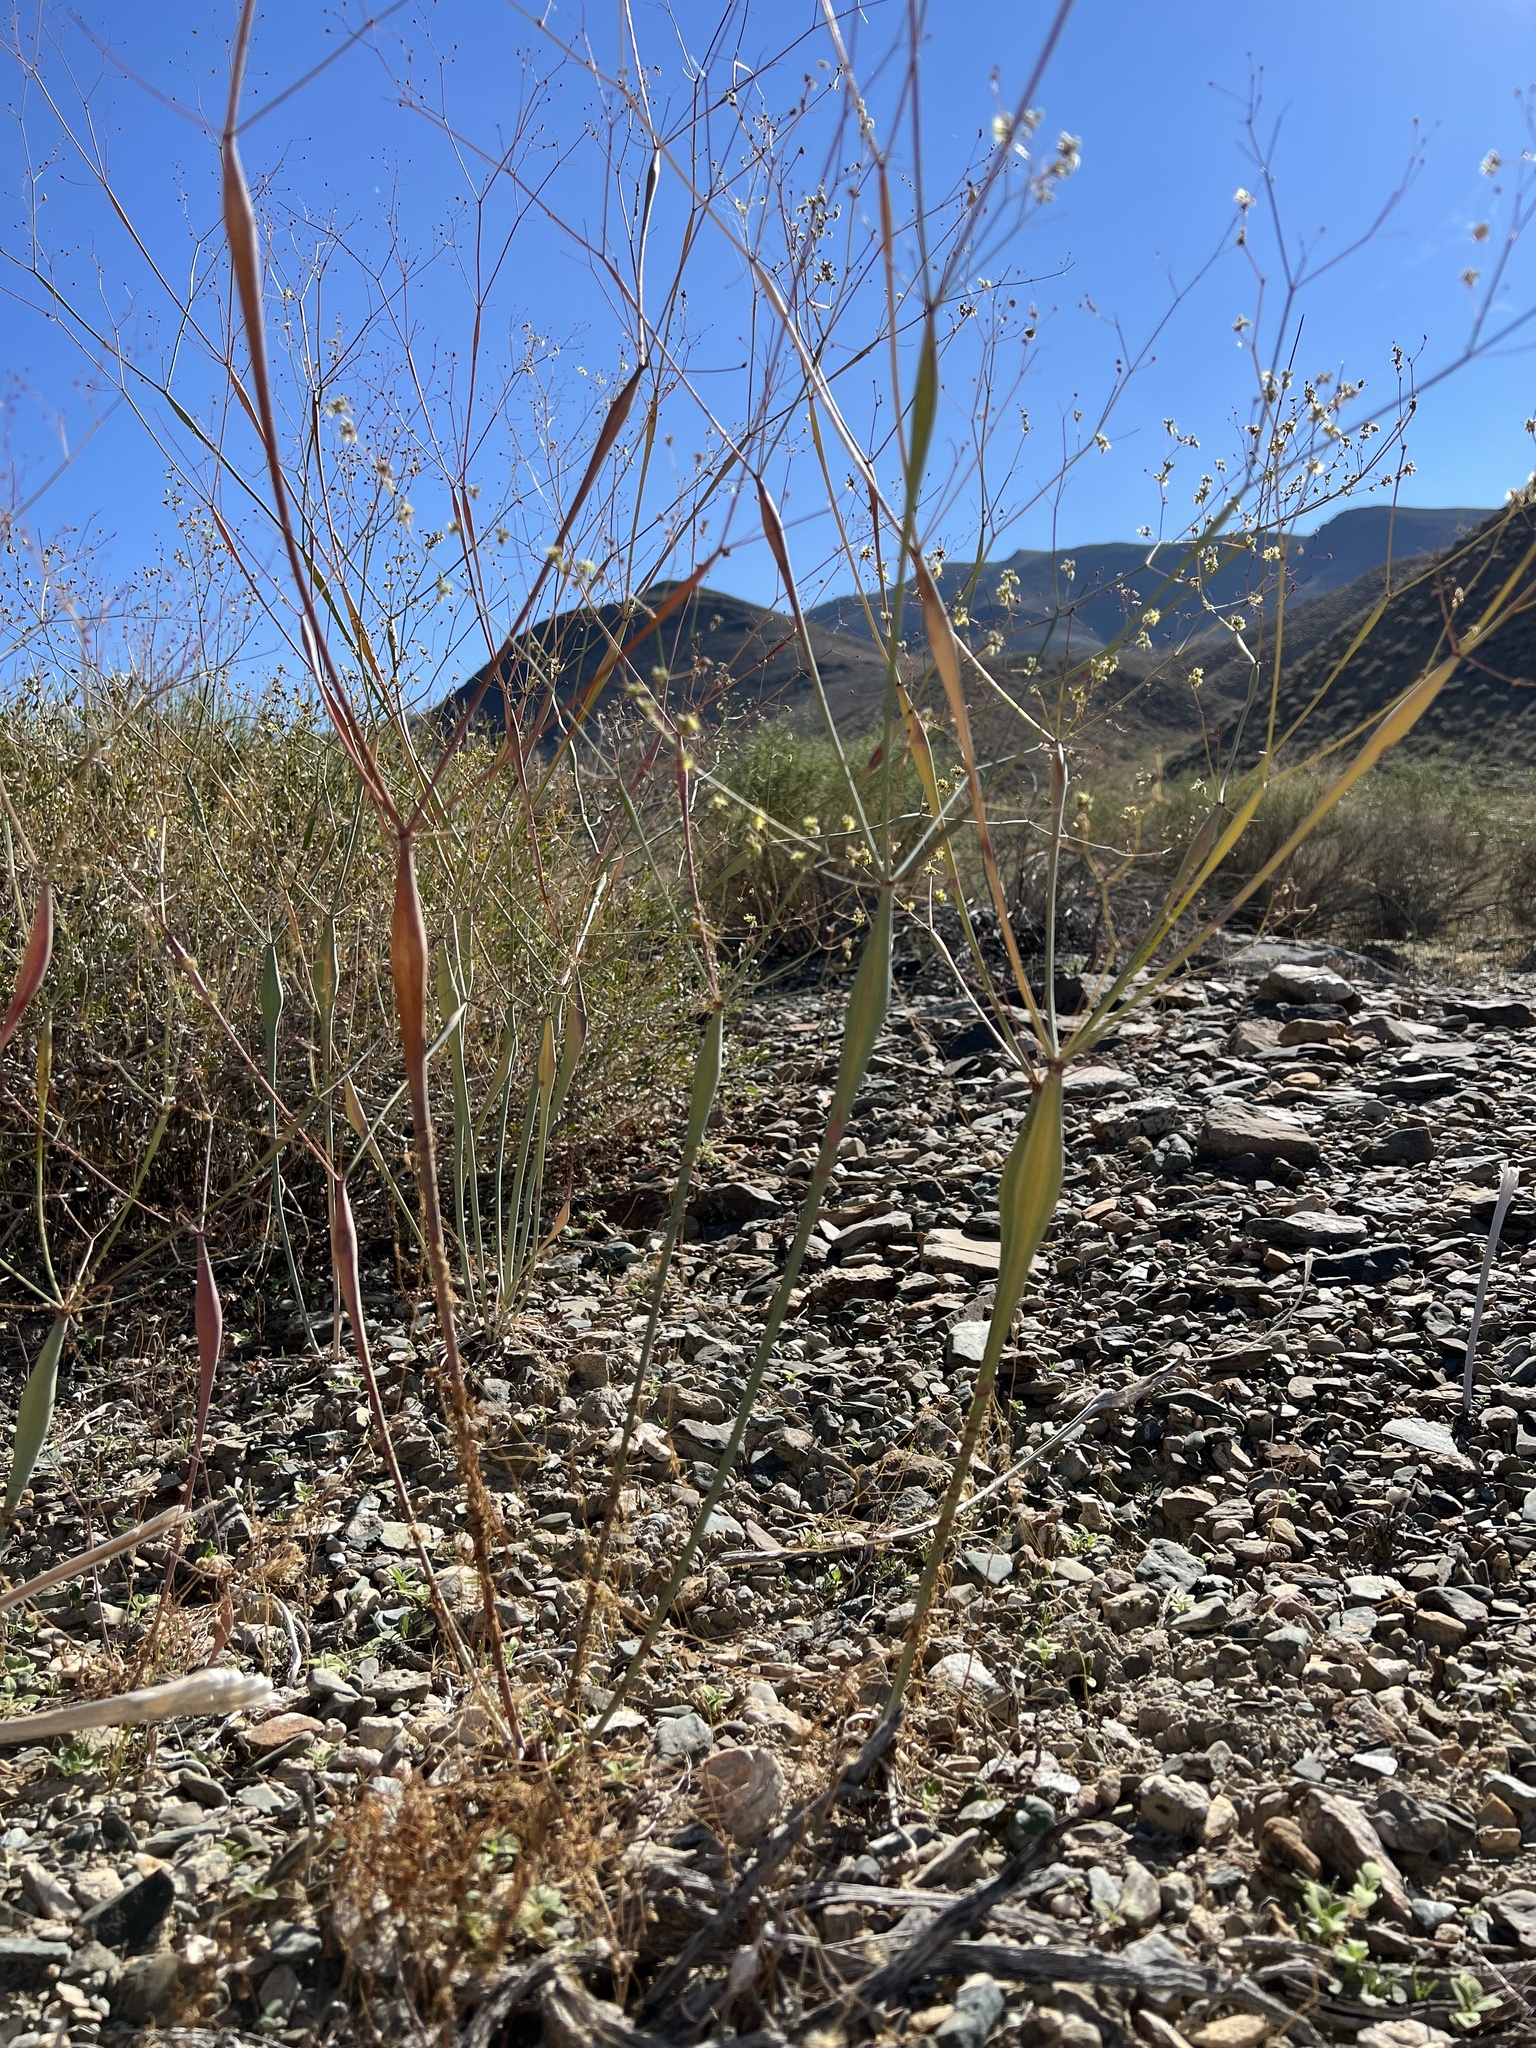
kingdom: Plantae
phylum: Tracheophyta
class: Magnoliopsida
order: Caryophyllales
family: Polygonaceae
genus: Eriogonum
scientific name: Eriogonum inflatum
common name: Desert trumpet
